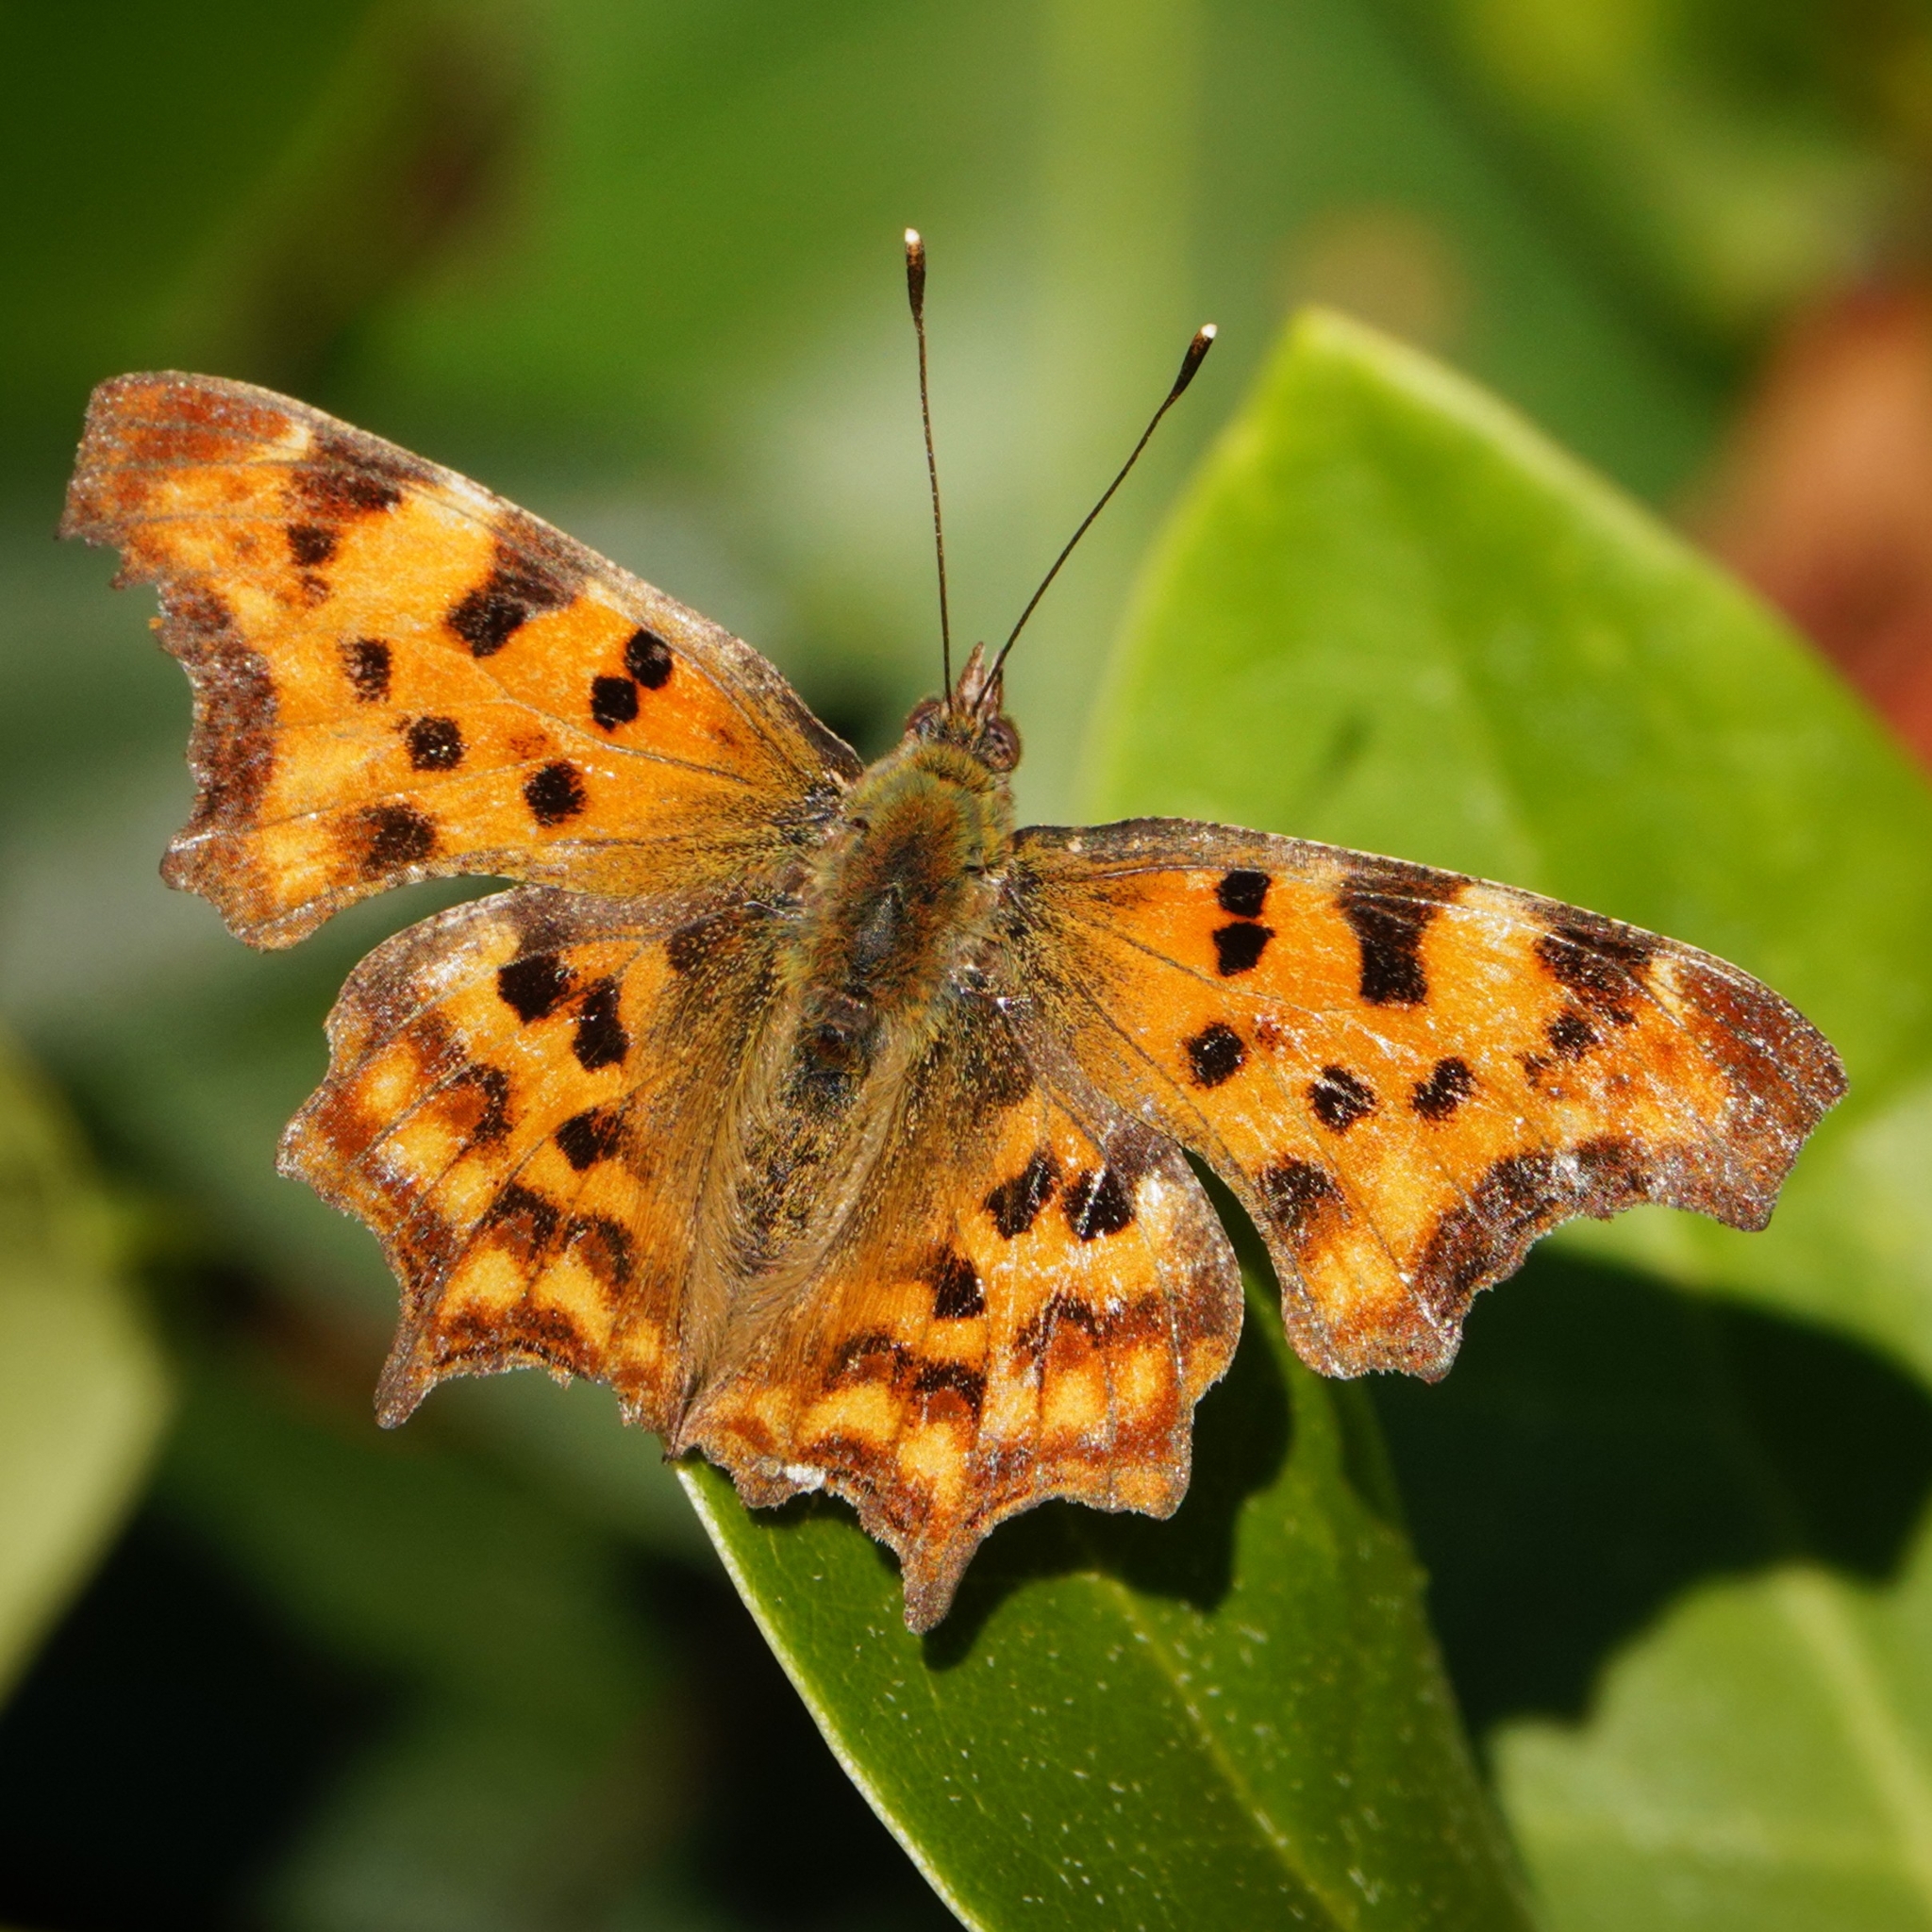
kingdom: Animalia
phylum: Arthropoda
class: Insecta
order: Lepidoptera
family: Nymphalidae
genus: Polygonia
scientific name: Polygonia c-album
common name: Comma
